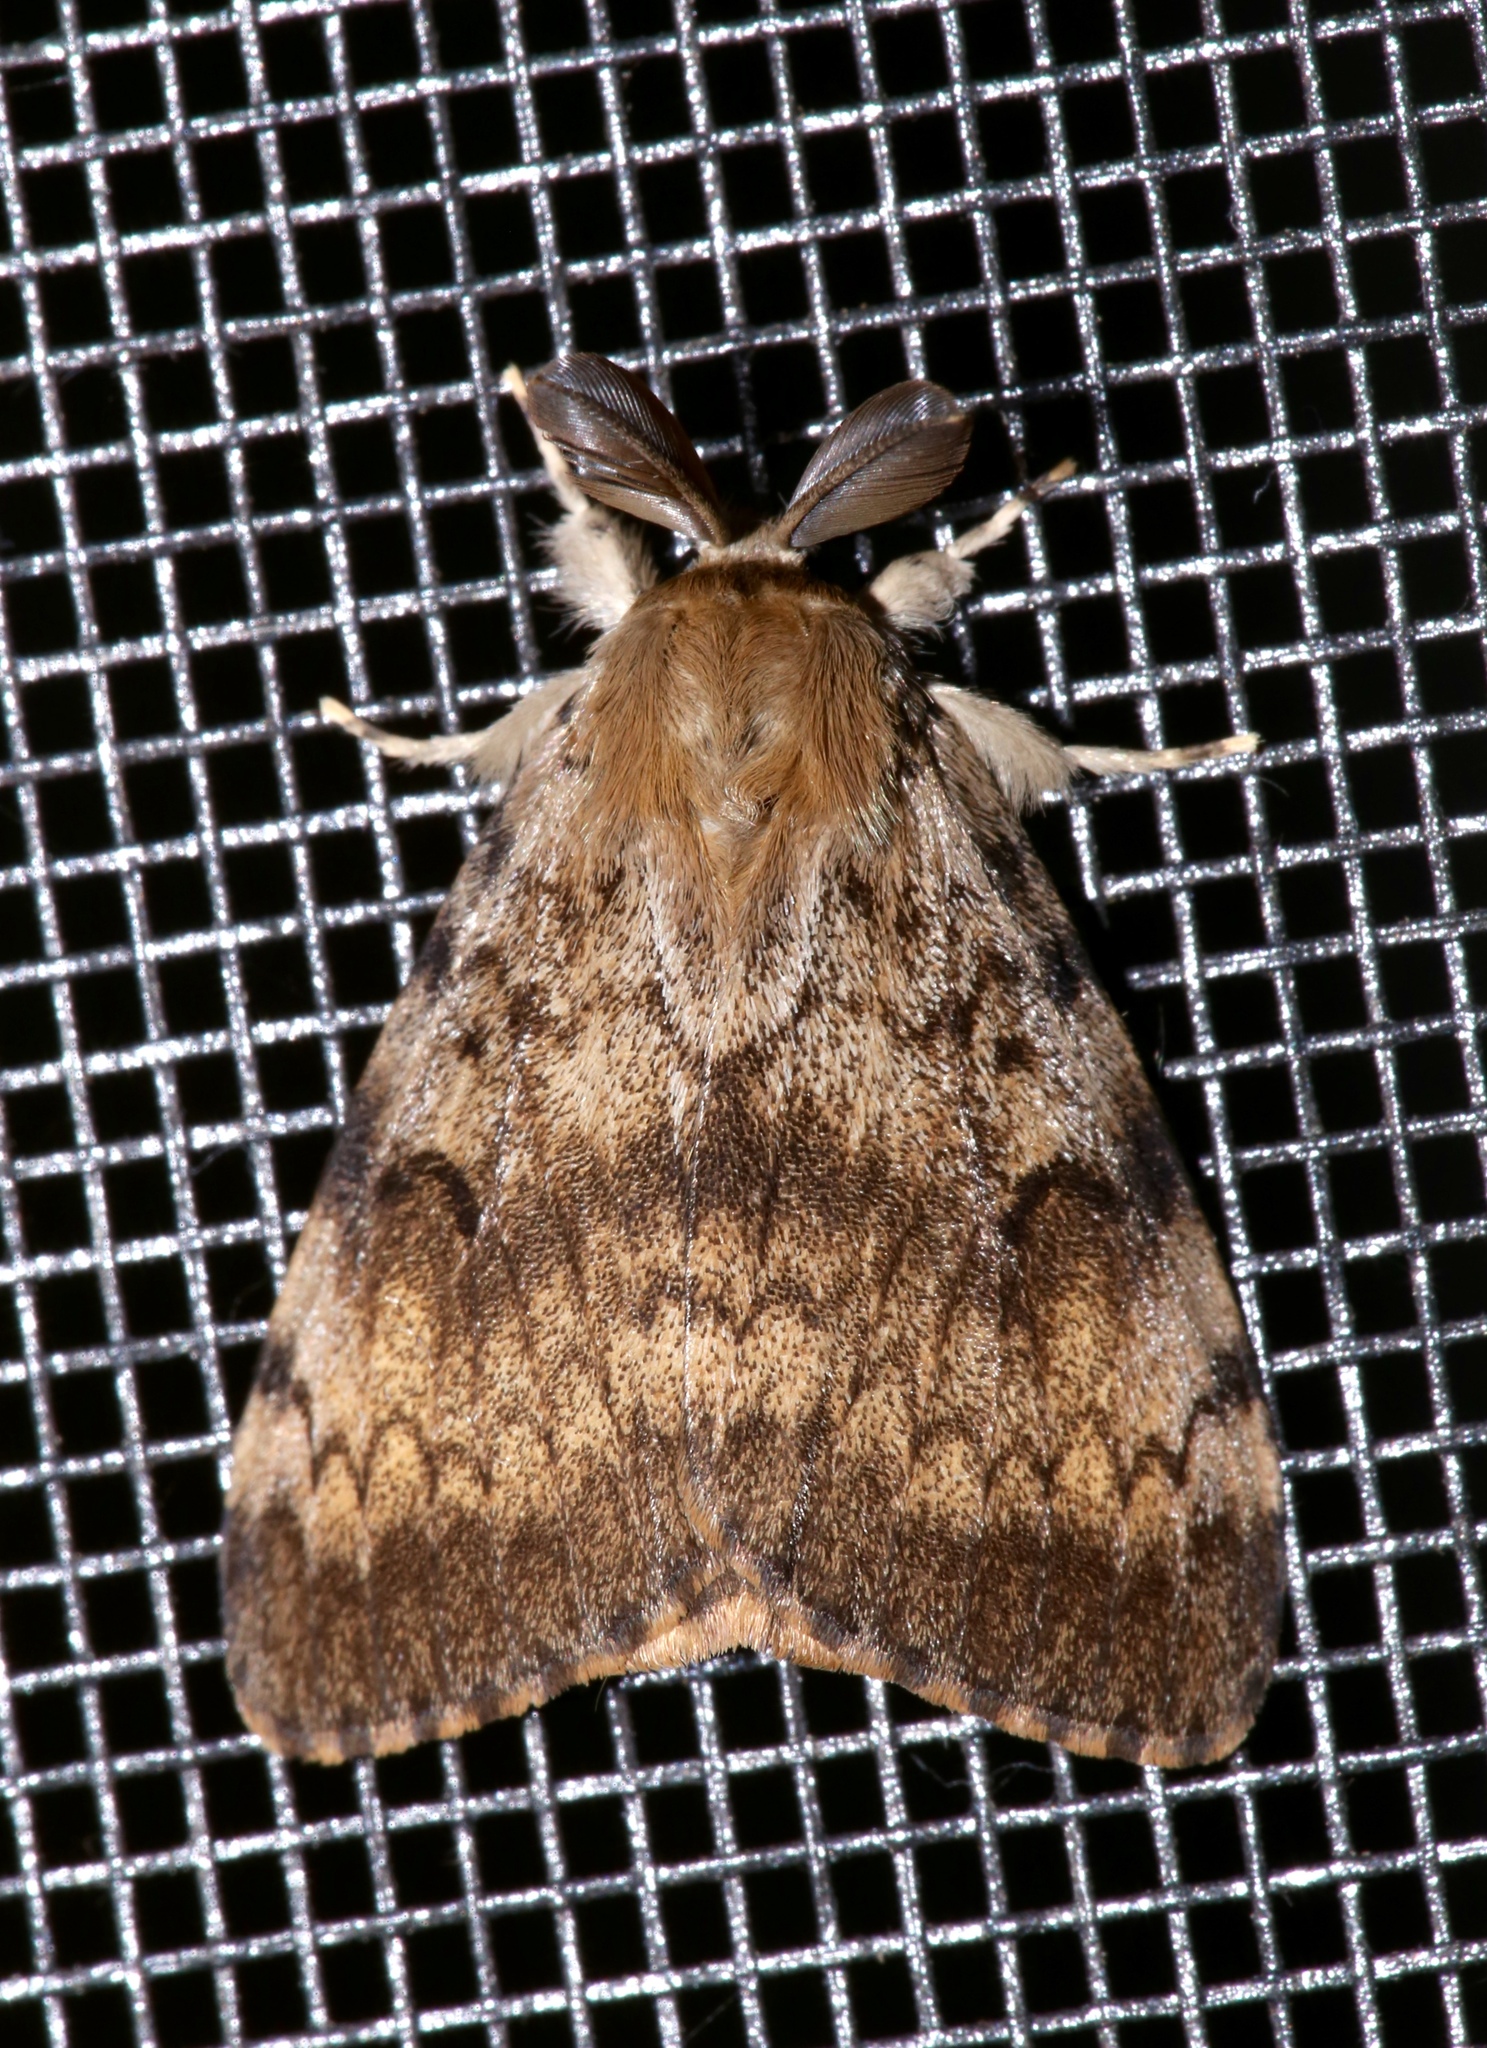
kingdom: Animalia
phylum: Arthropoda
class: Insecta
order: Lepidoptera
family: Erebidae
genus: Lymantria
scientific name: Lymantria dispar
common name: Gypsy moth
